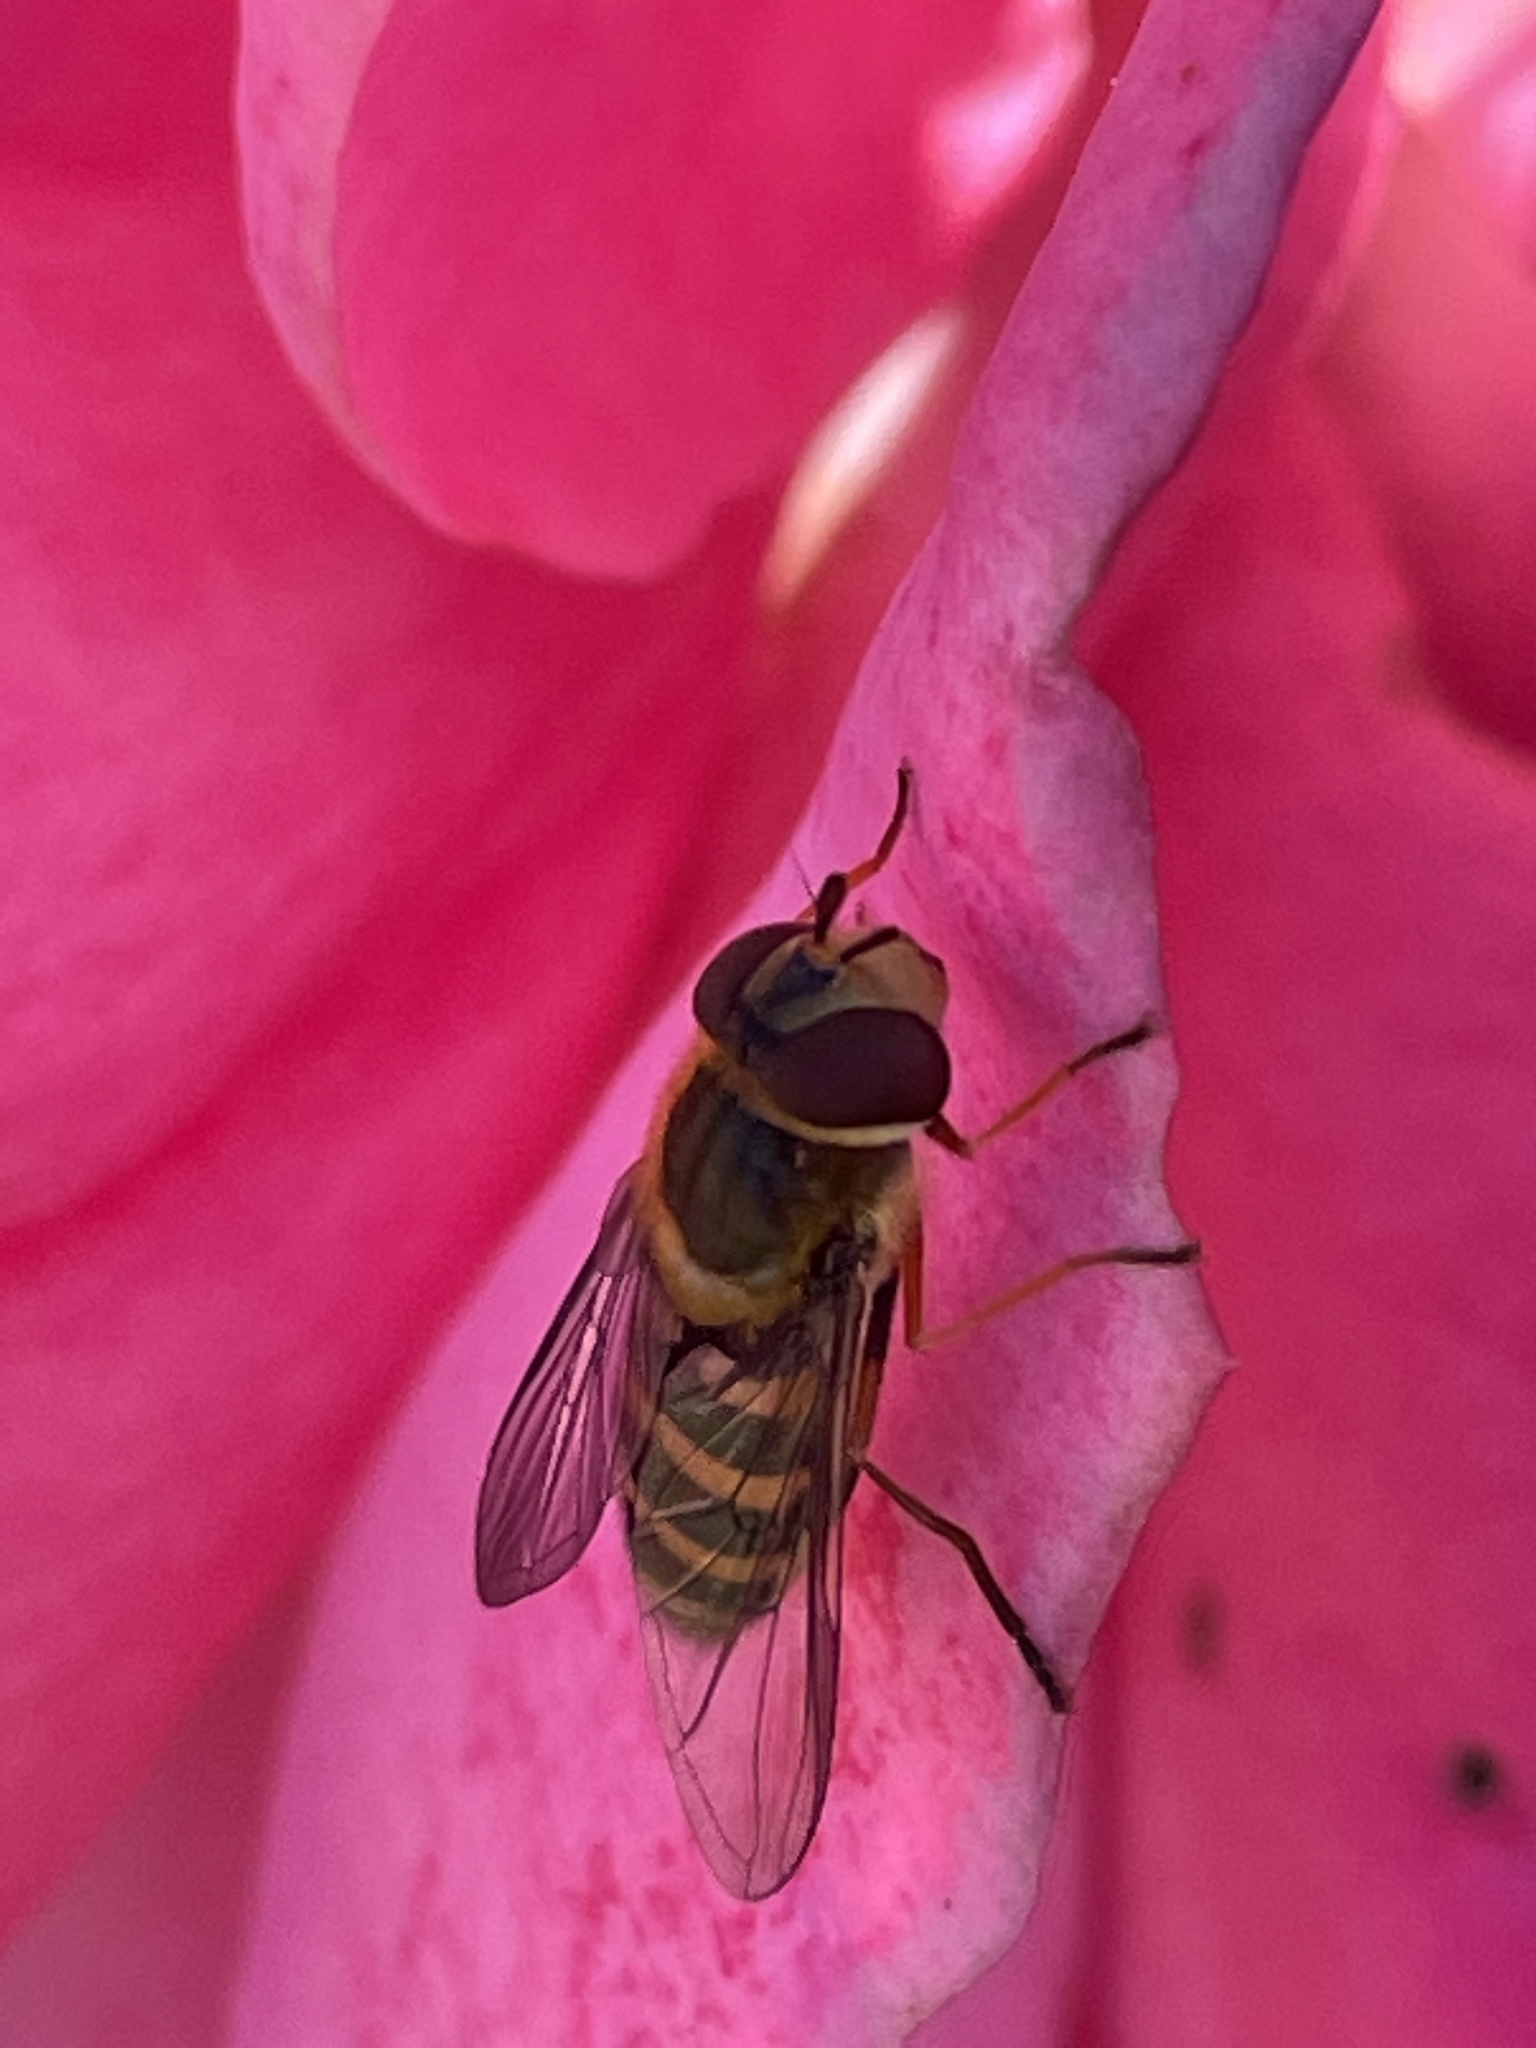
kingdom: Animalia
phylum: Arthropoda
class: Insecta
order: Diptera
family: Syrphidae
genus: Syrphus
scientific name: Syrphus
